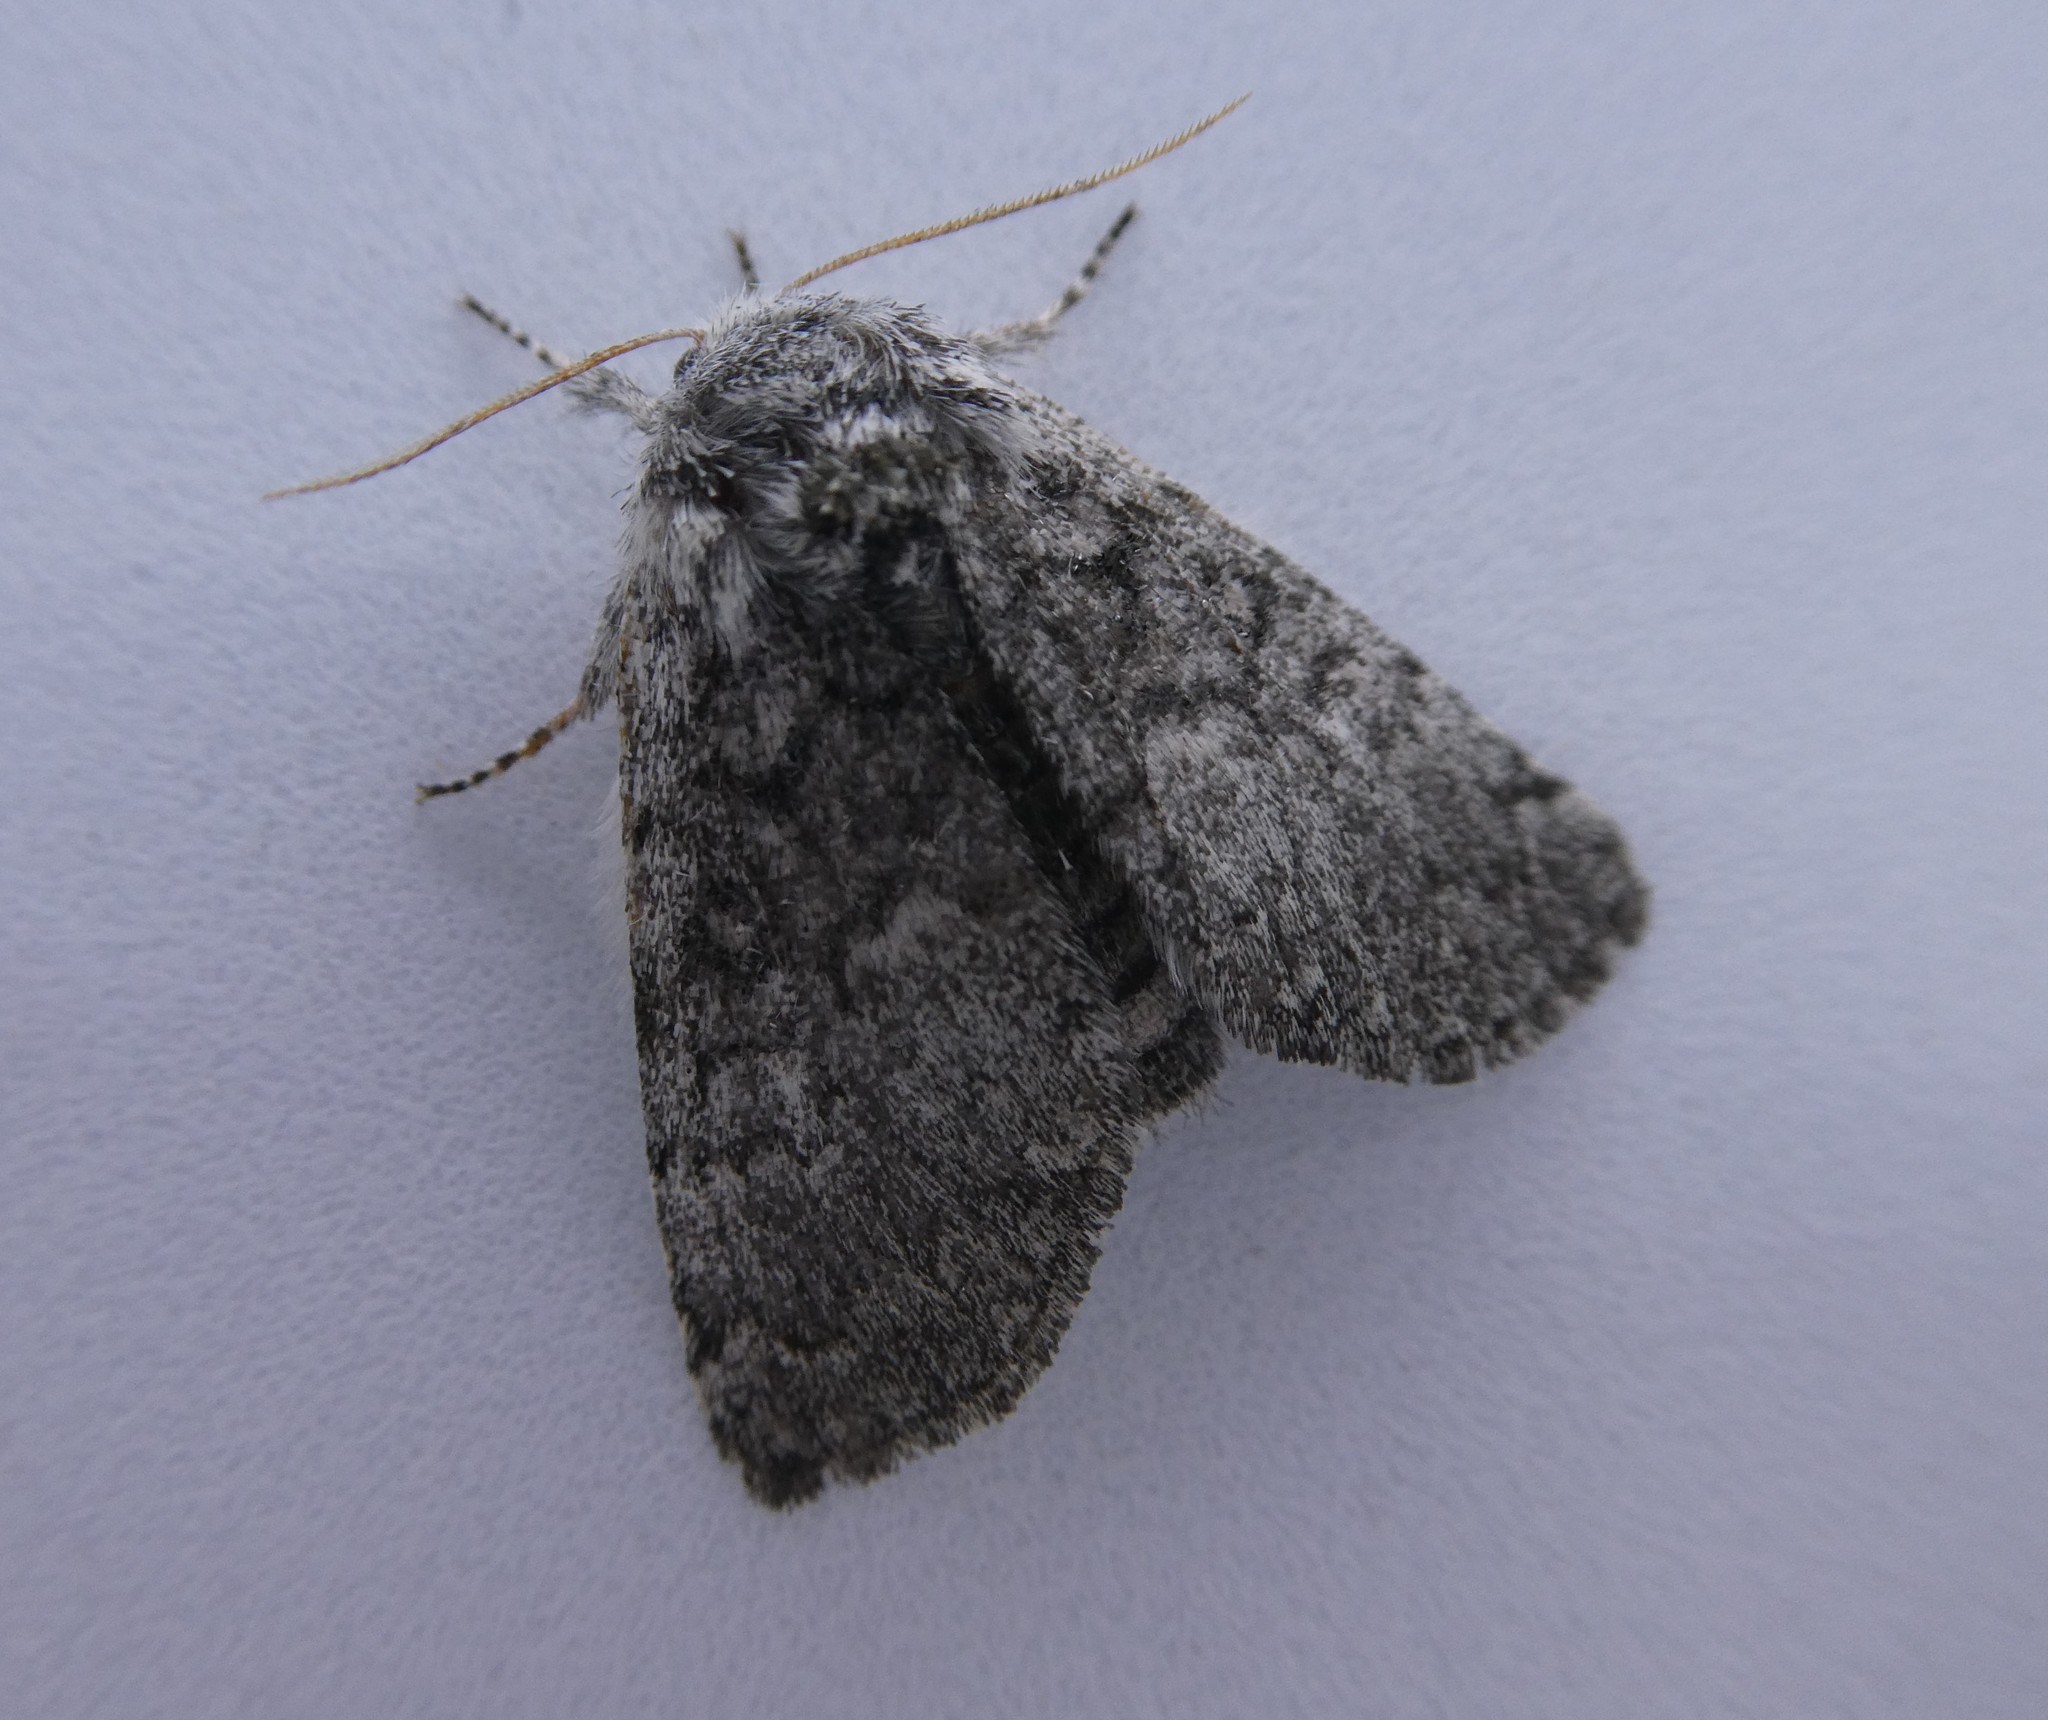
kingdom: Animalia
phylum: Arthropoda
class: Insecta
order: Lepidoptera
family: Noctuidae
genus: Colocasia
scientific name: Colocasia propinquilinea
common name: Close-banded demas
